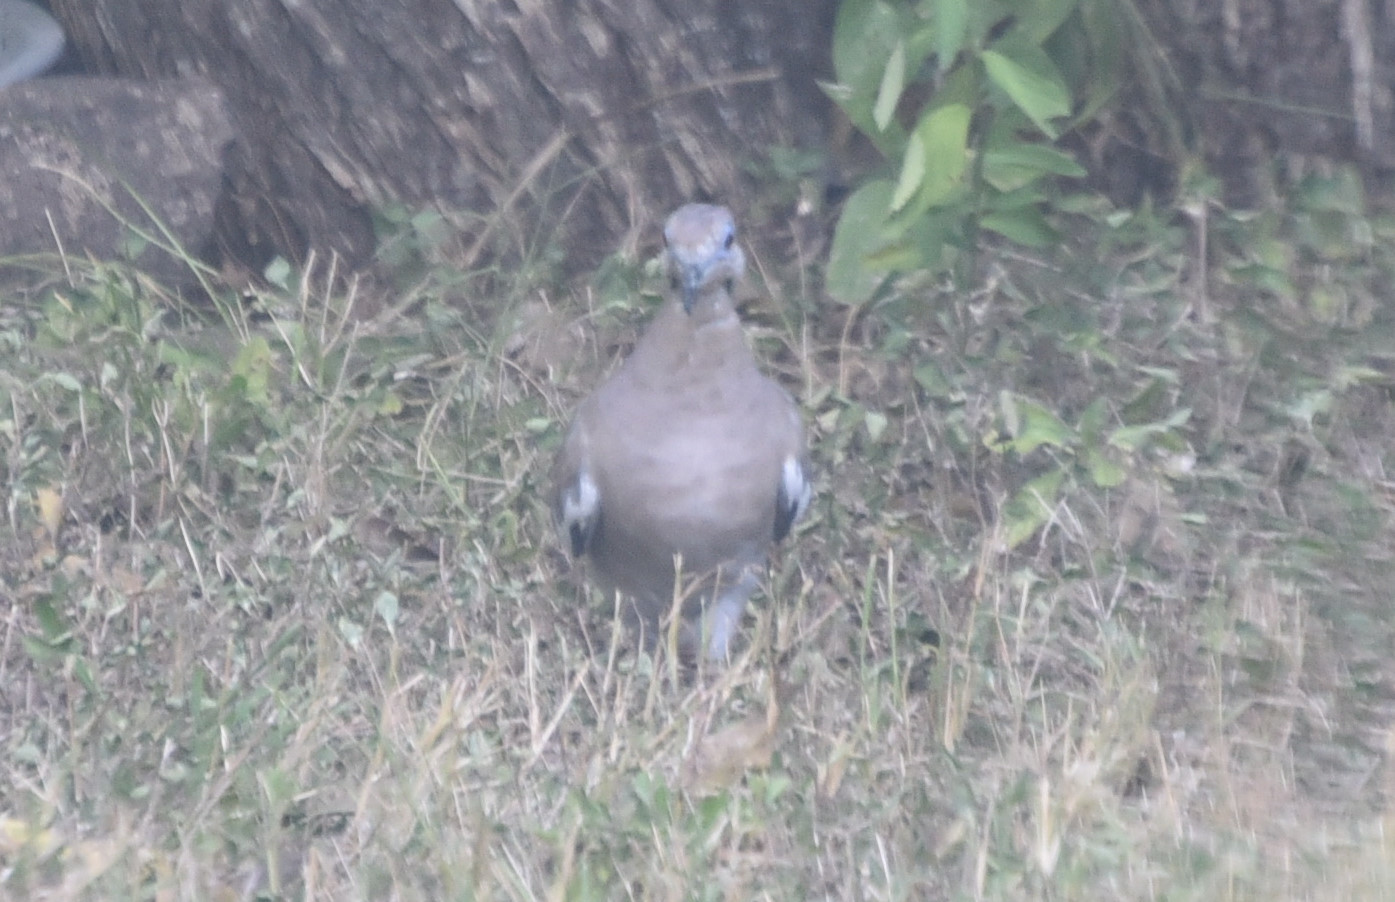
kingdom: Animalia
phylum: Chordata
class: Aves
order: Columbiformes
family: Columbidae
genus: Zenaida
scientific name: Zenaida asiatica
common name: White-winged dove
